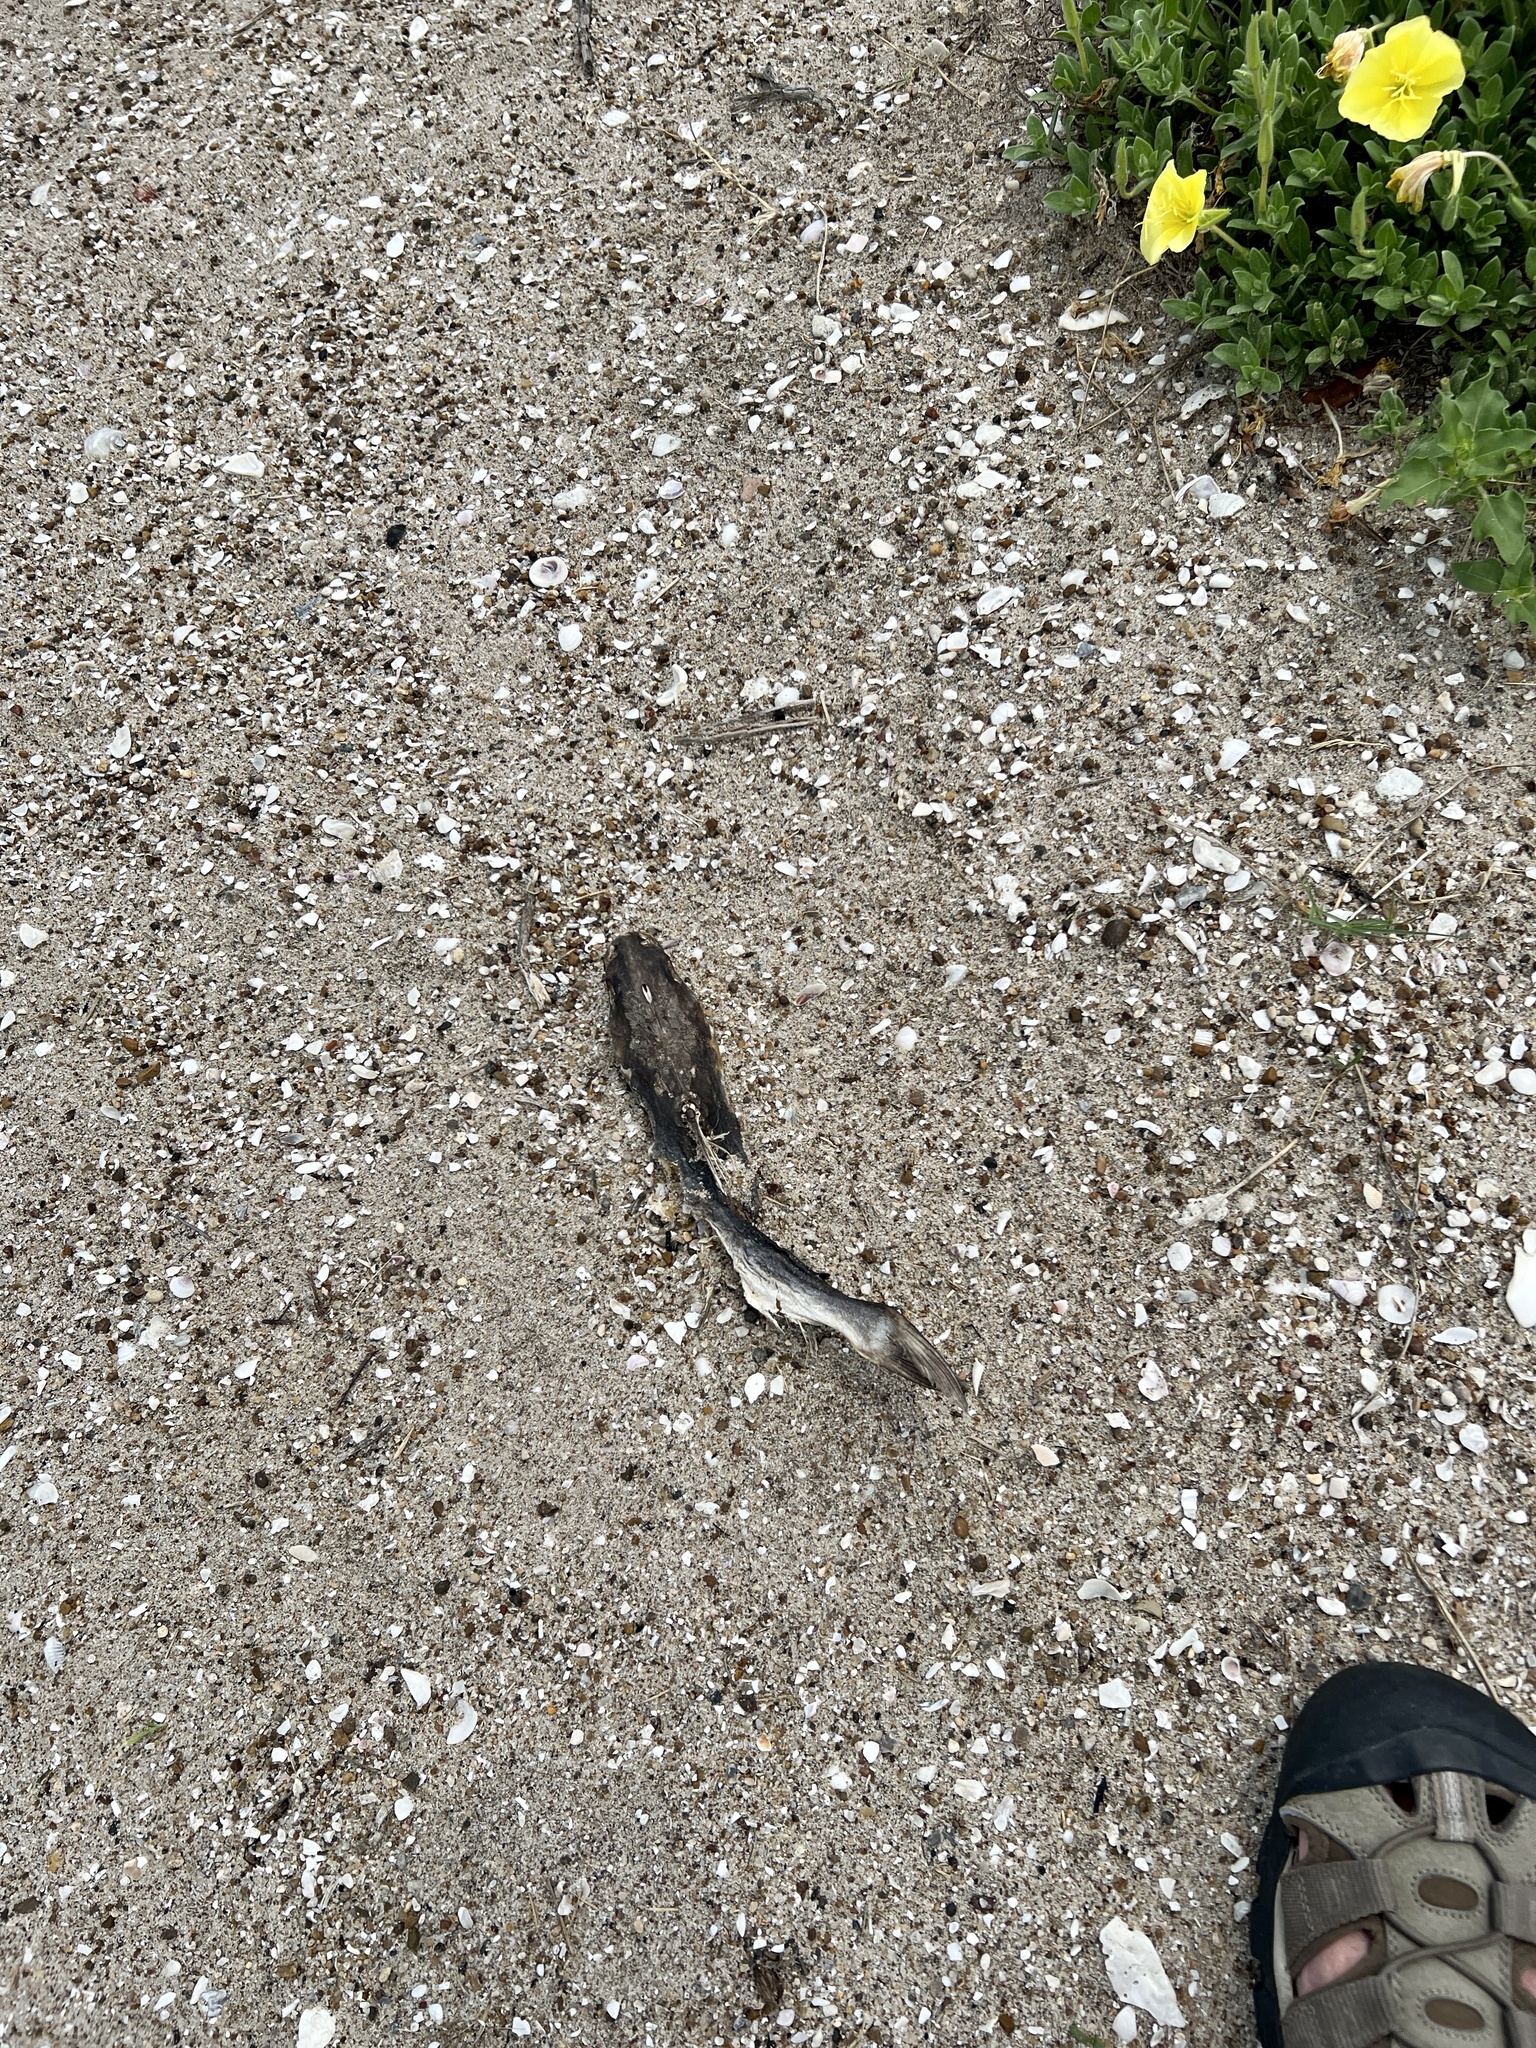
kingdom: Animalia
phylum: Chordata
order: Siluriformes
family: Ariidae
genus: Ariopsis
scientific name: Ariopsis felis
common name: Hardhead catfish
